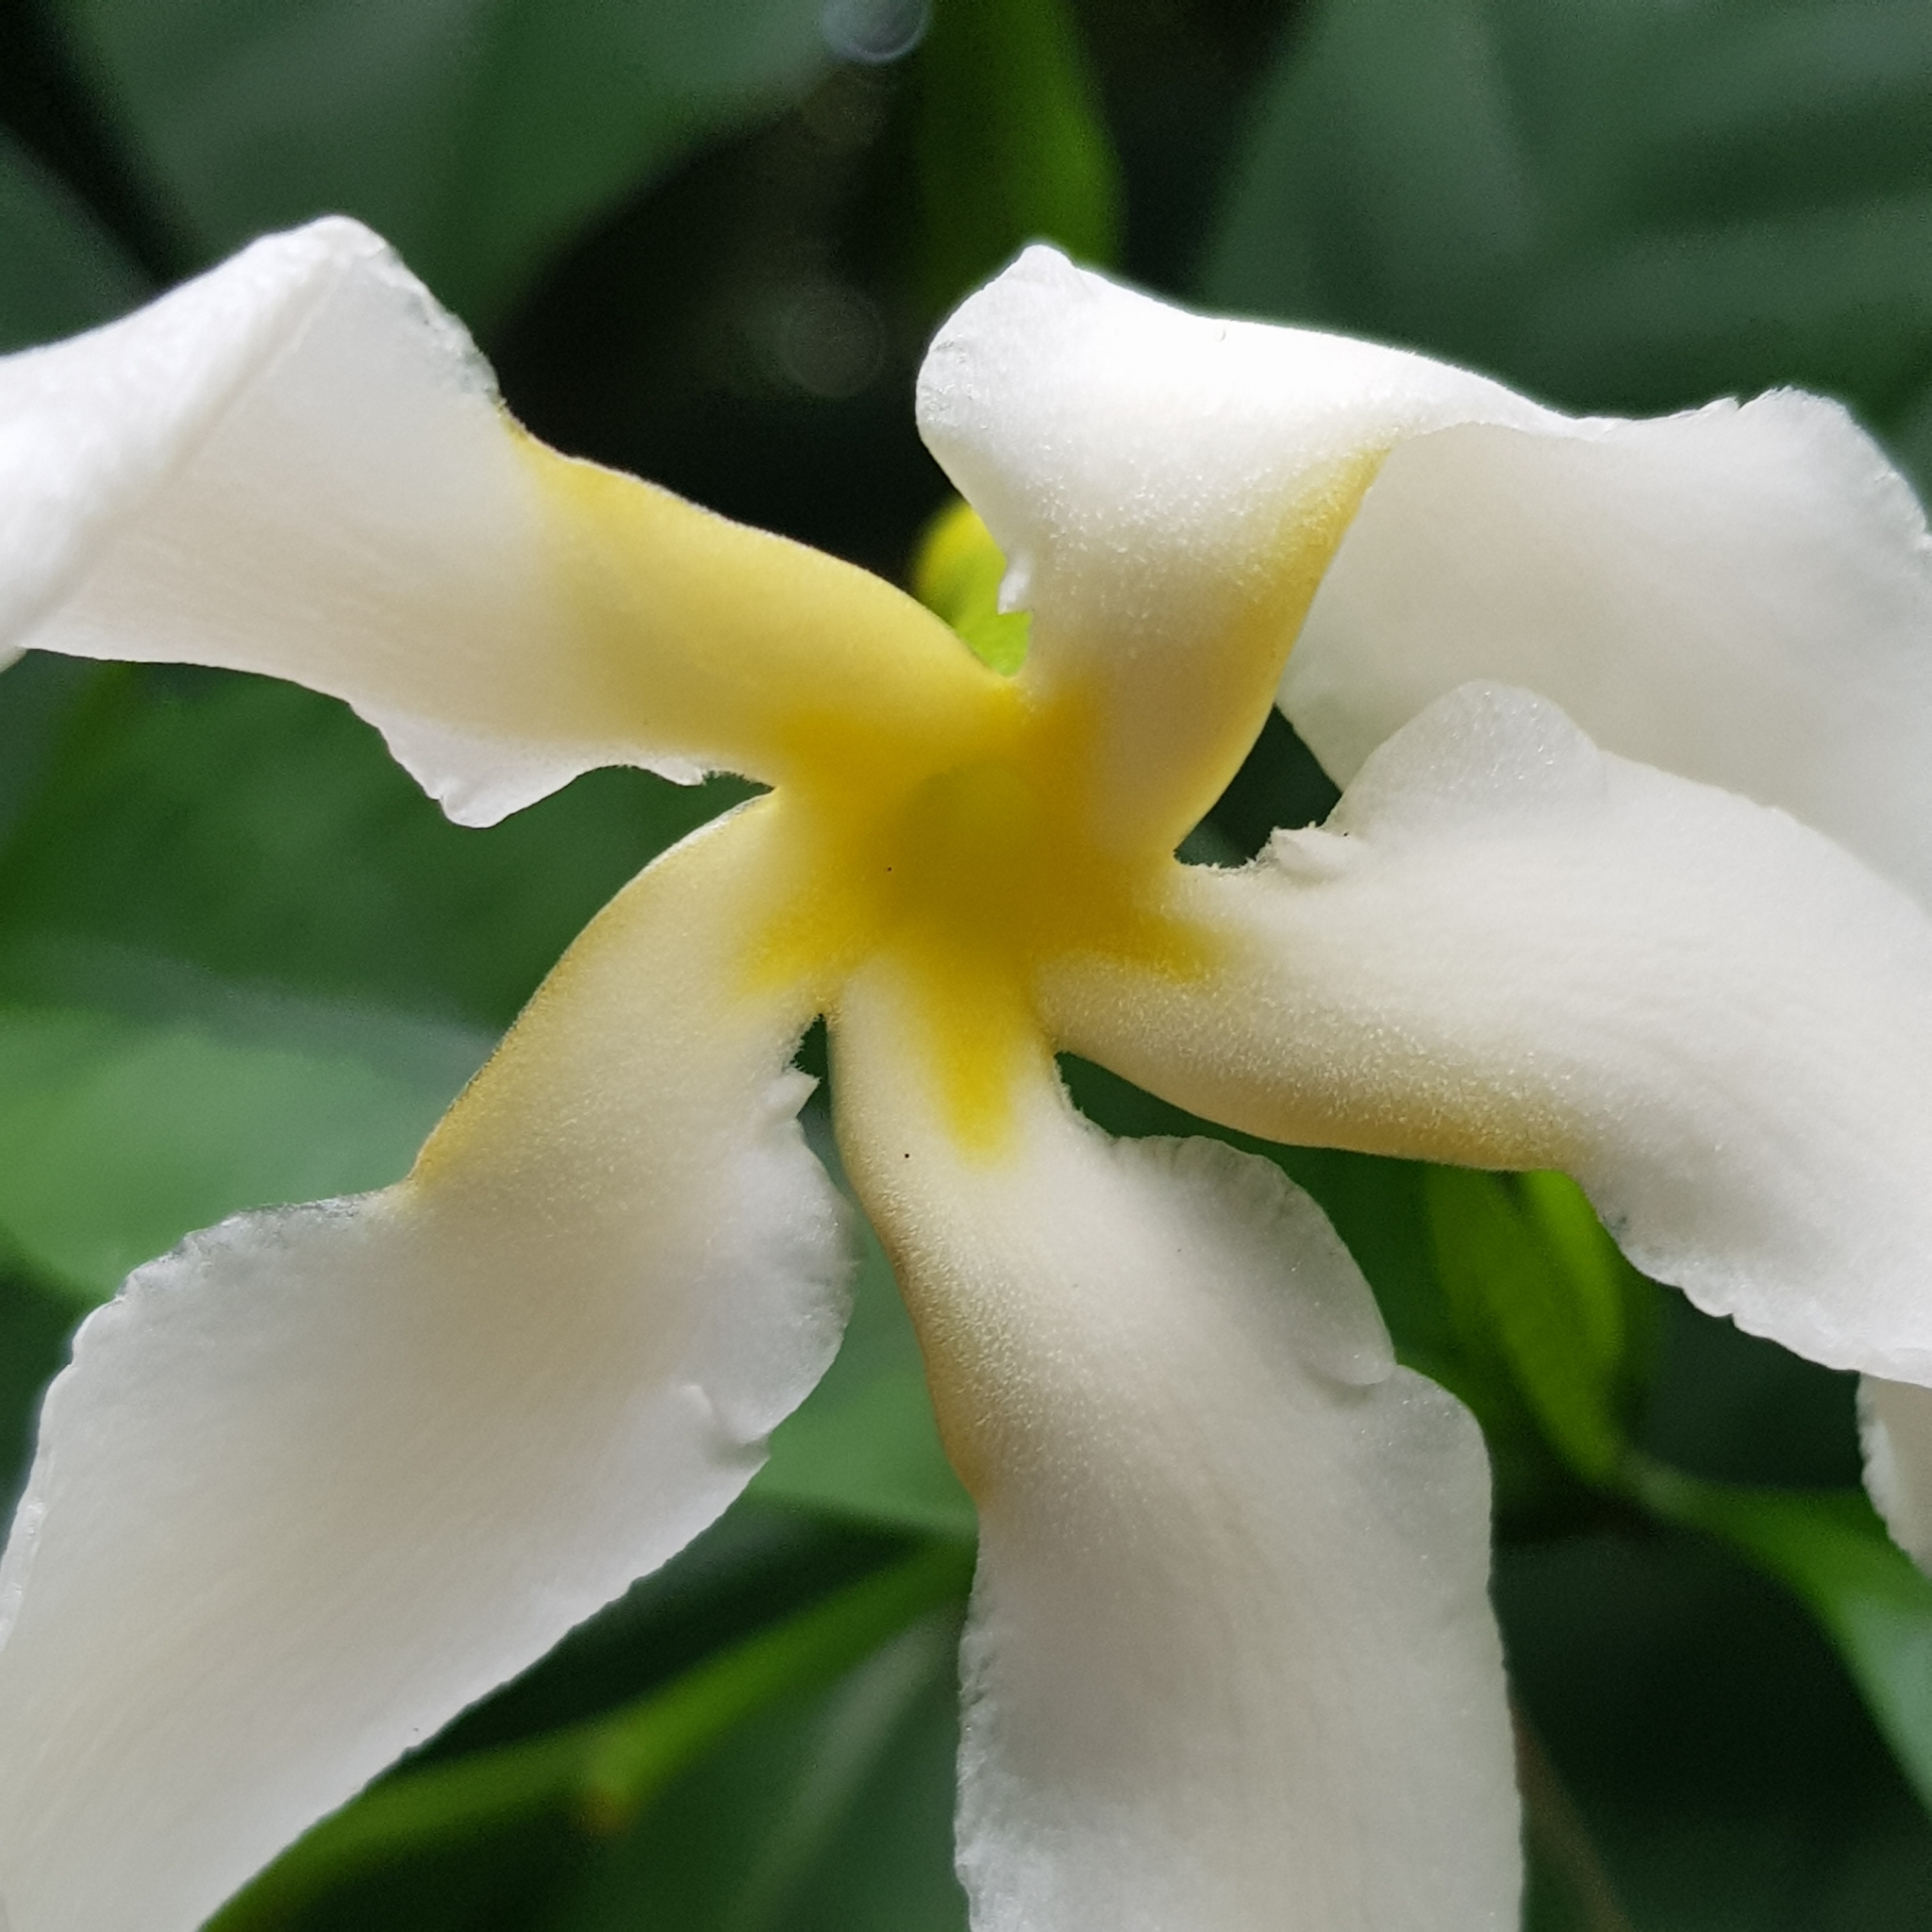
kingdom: Plantae
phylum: Tracheophyta
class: Magnoliopsida
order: Gentianales
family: Apocynaceae
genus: Tabernaemontana
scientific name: Tabernaemontana africana
